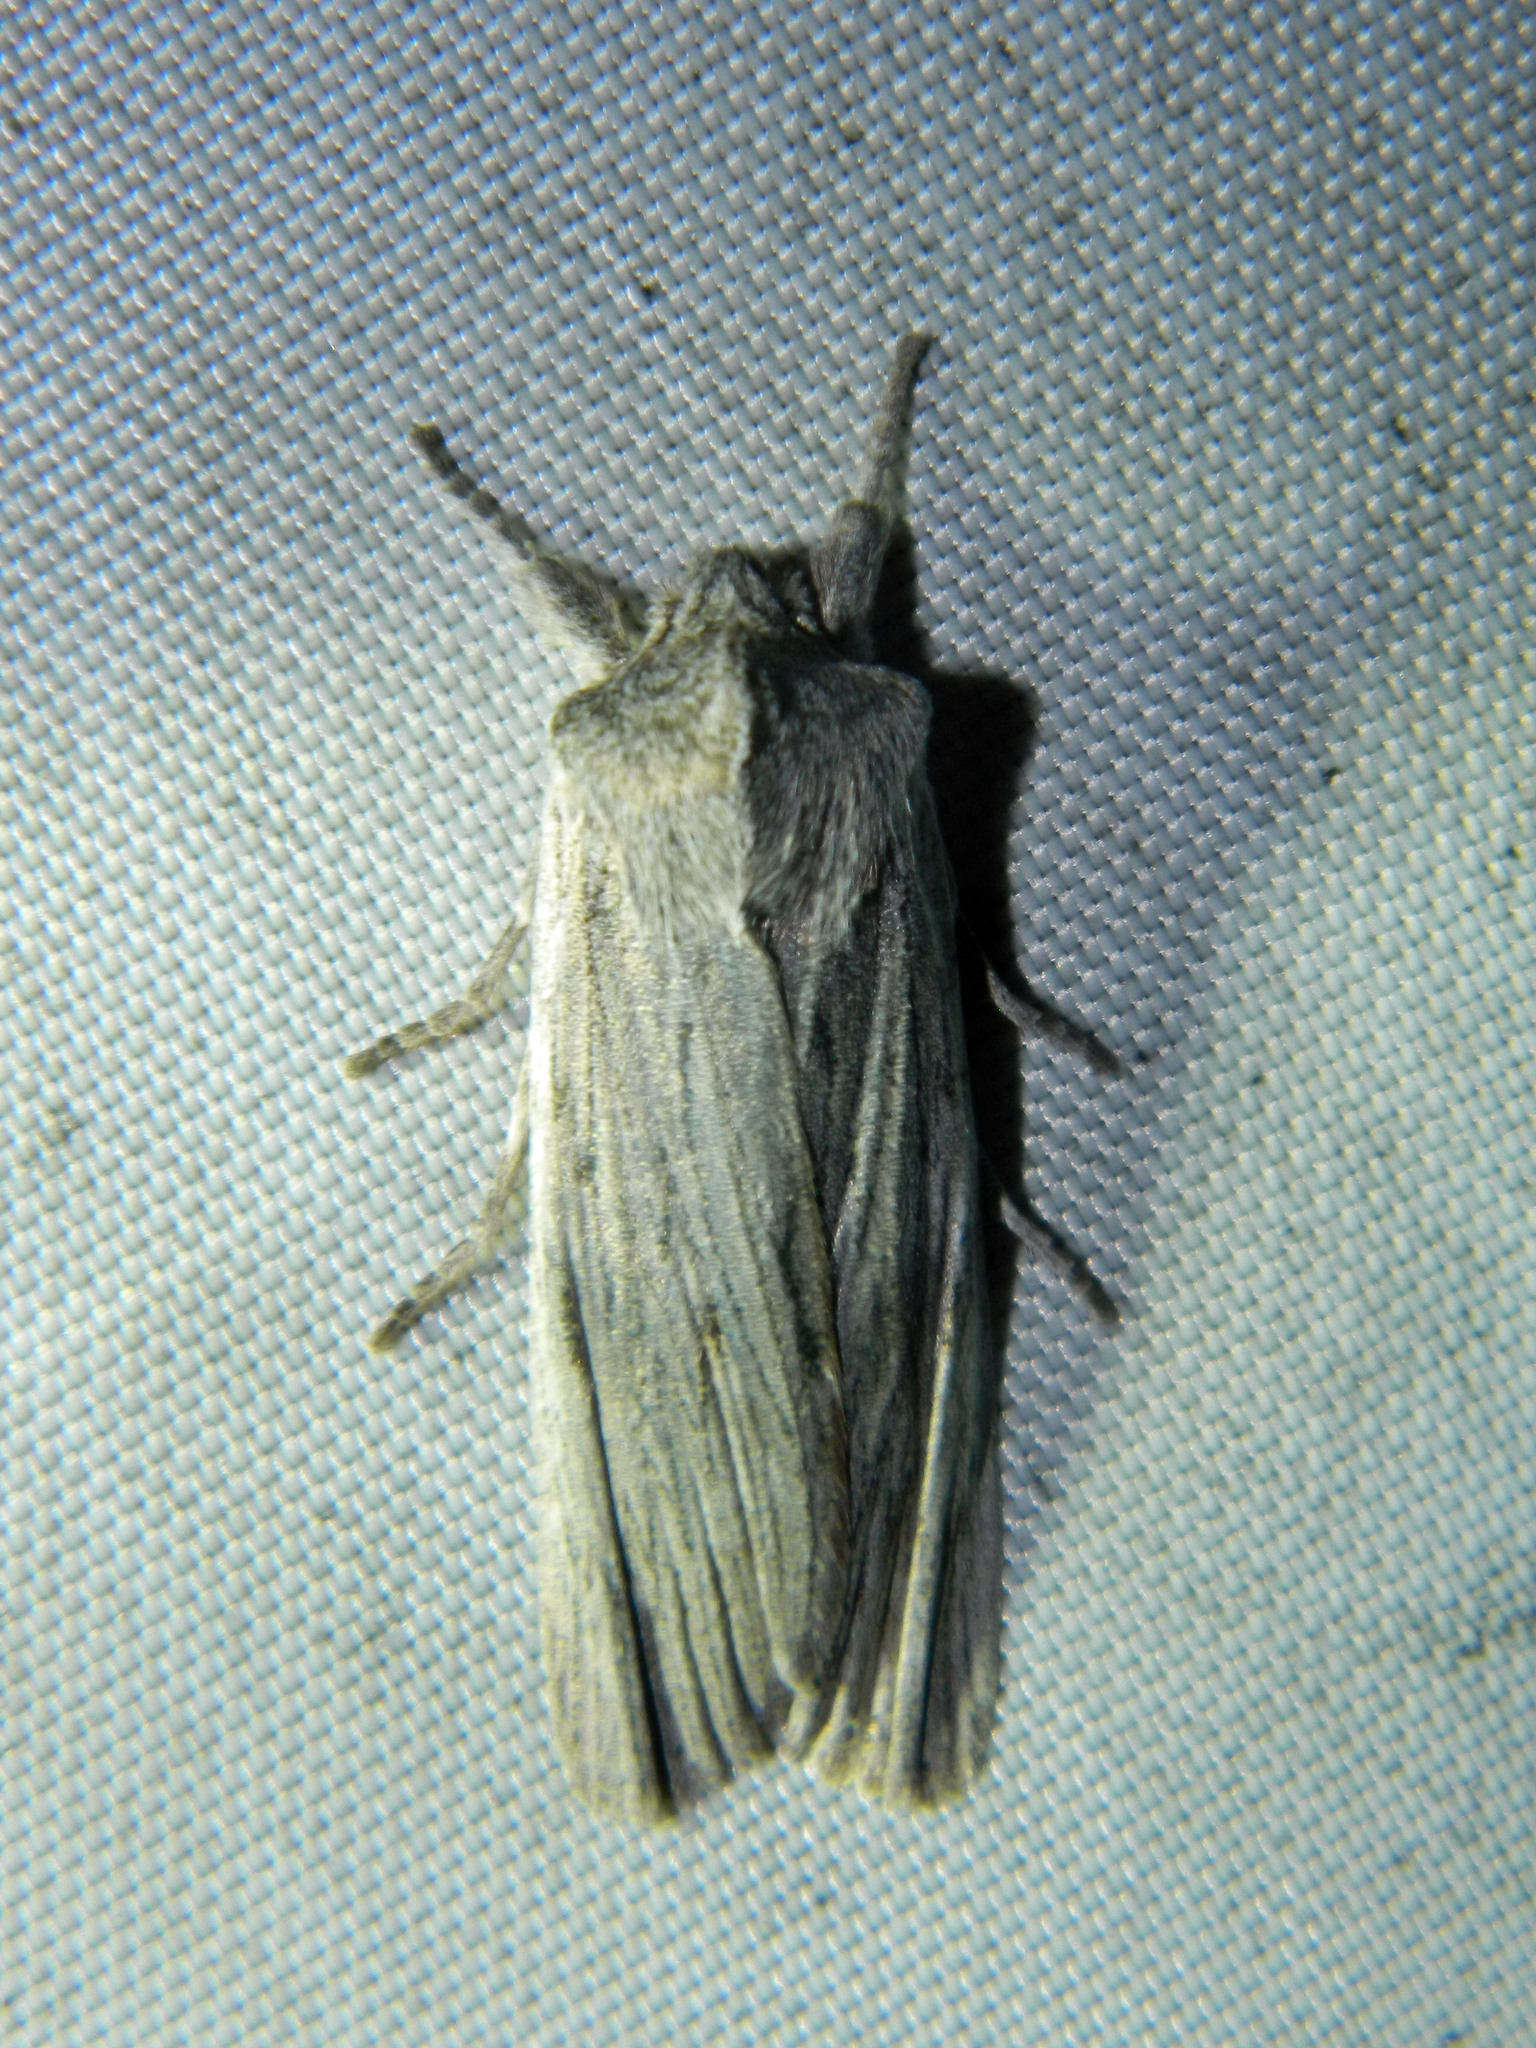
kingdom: Animalia
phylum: Arthropoda
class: Insecta
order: Lepidoptera
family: Noctuidae
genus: Lithophane
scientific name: Lithophane fagina
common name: Hoary pinion moth
